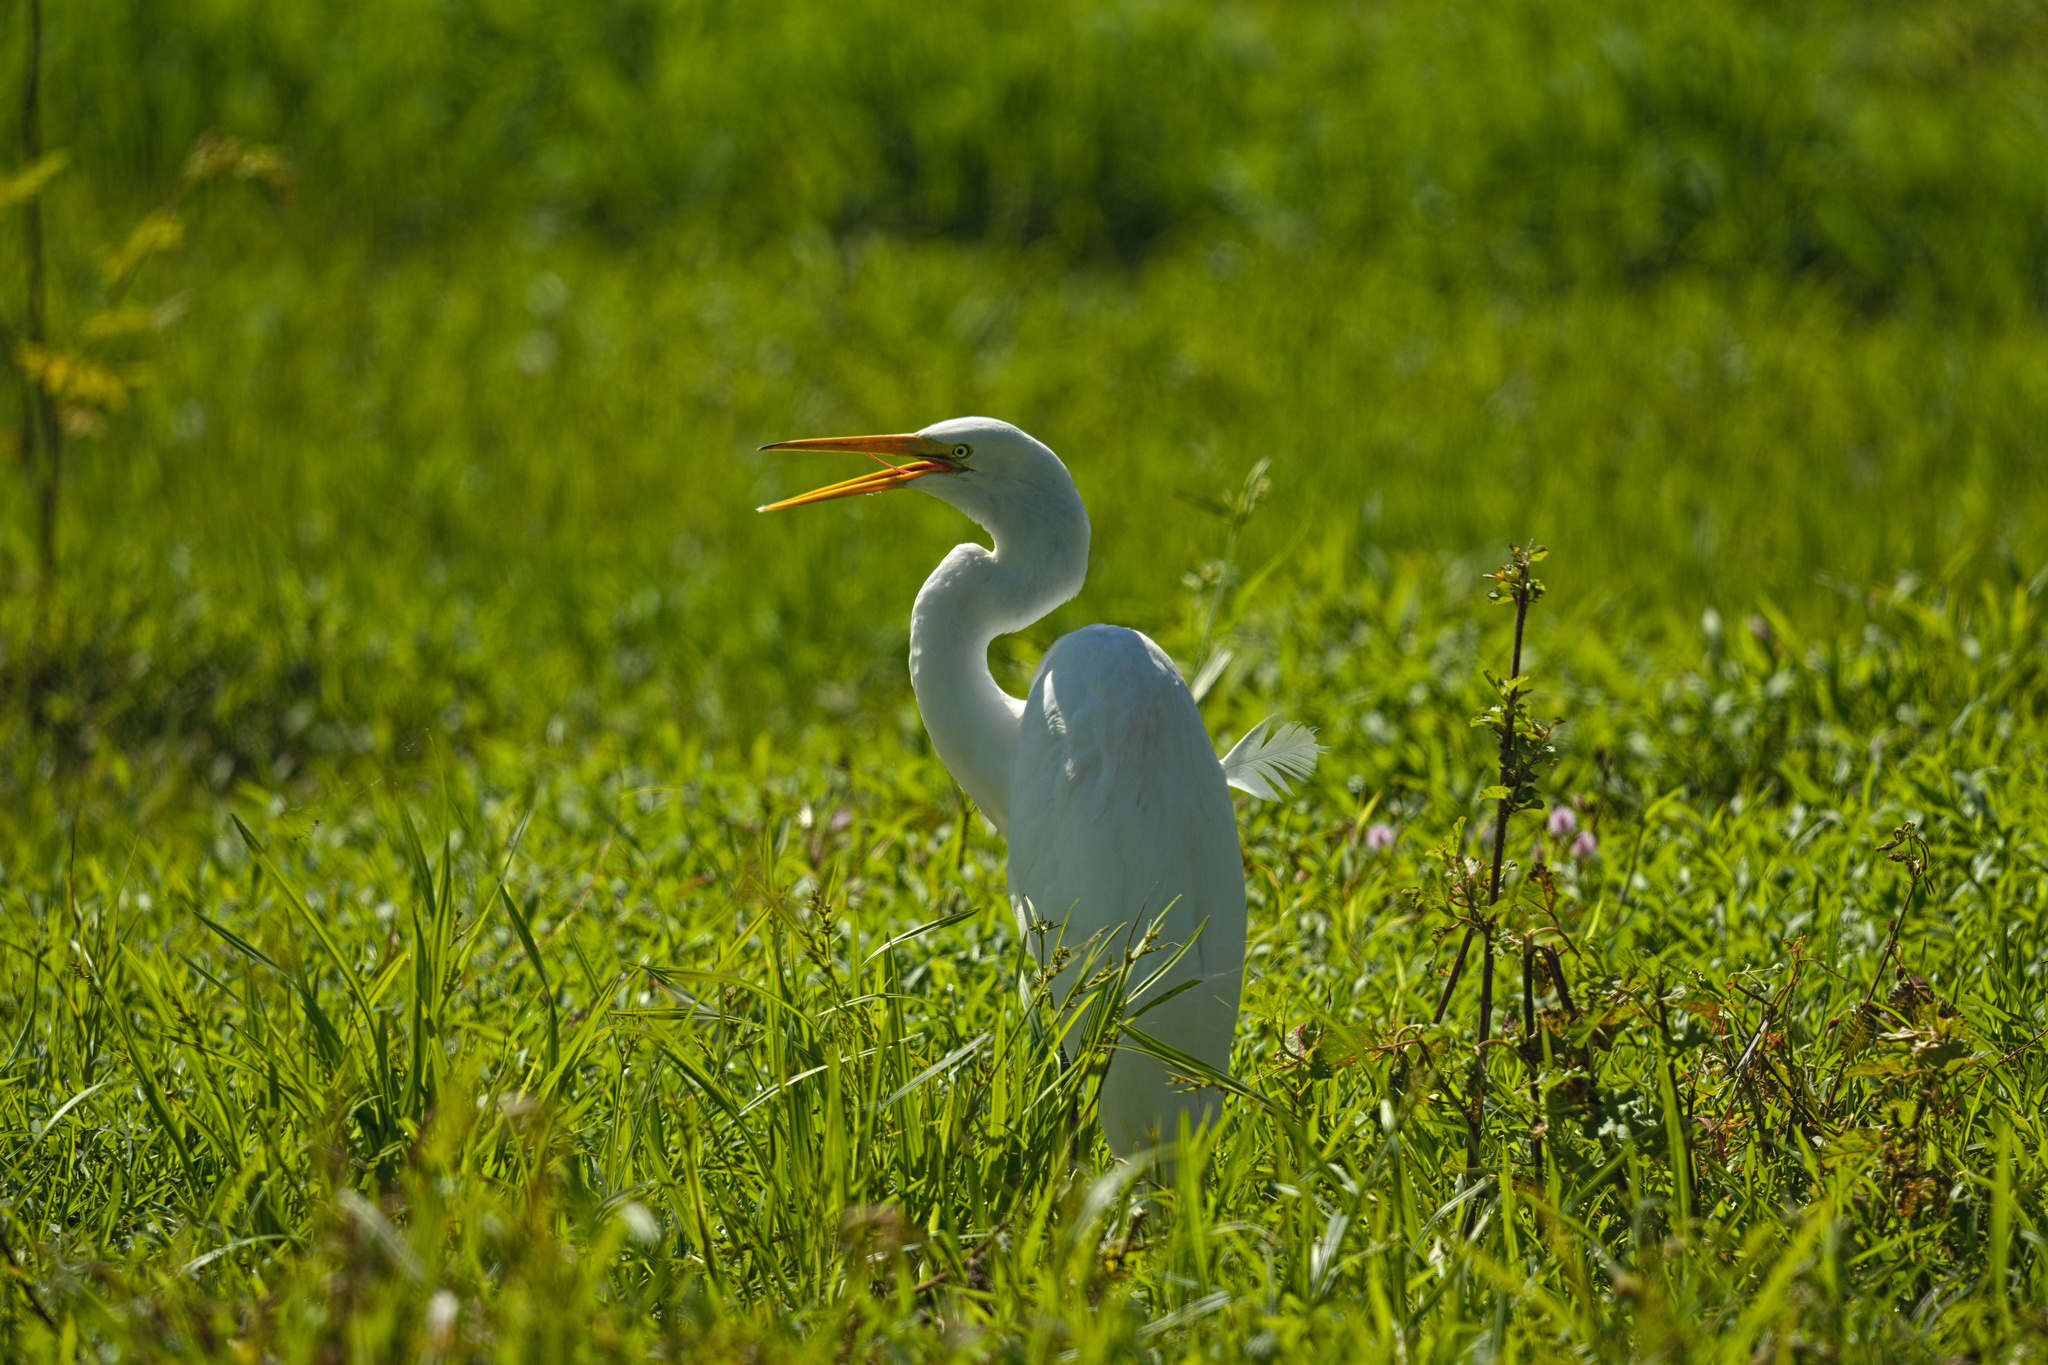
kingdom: Animalia
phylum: Chordata
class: Aves
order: Pelecaniformes
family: Ardeidae
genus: Ardea
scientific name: Ardea alba
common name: Great egret
